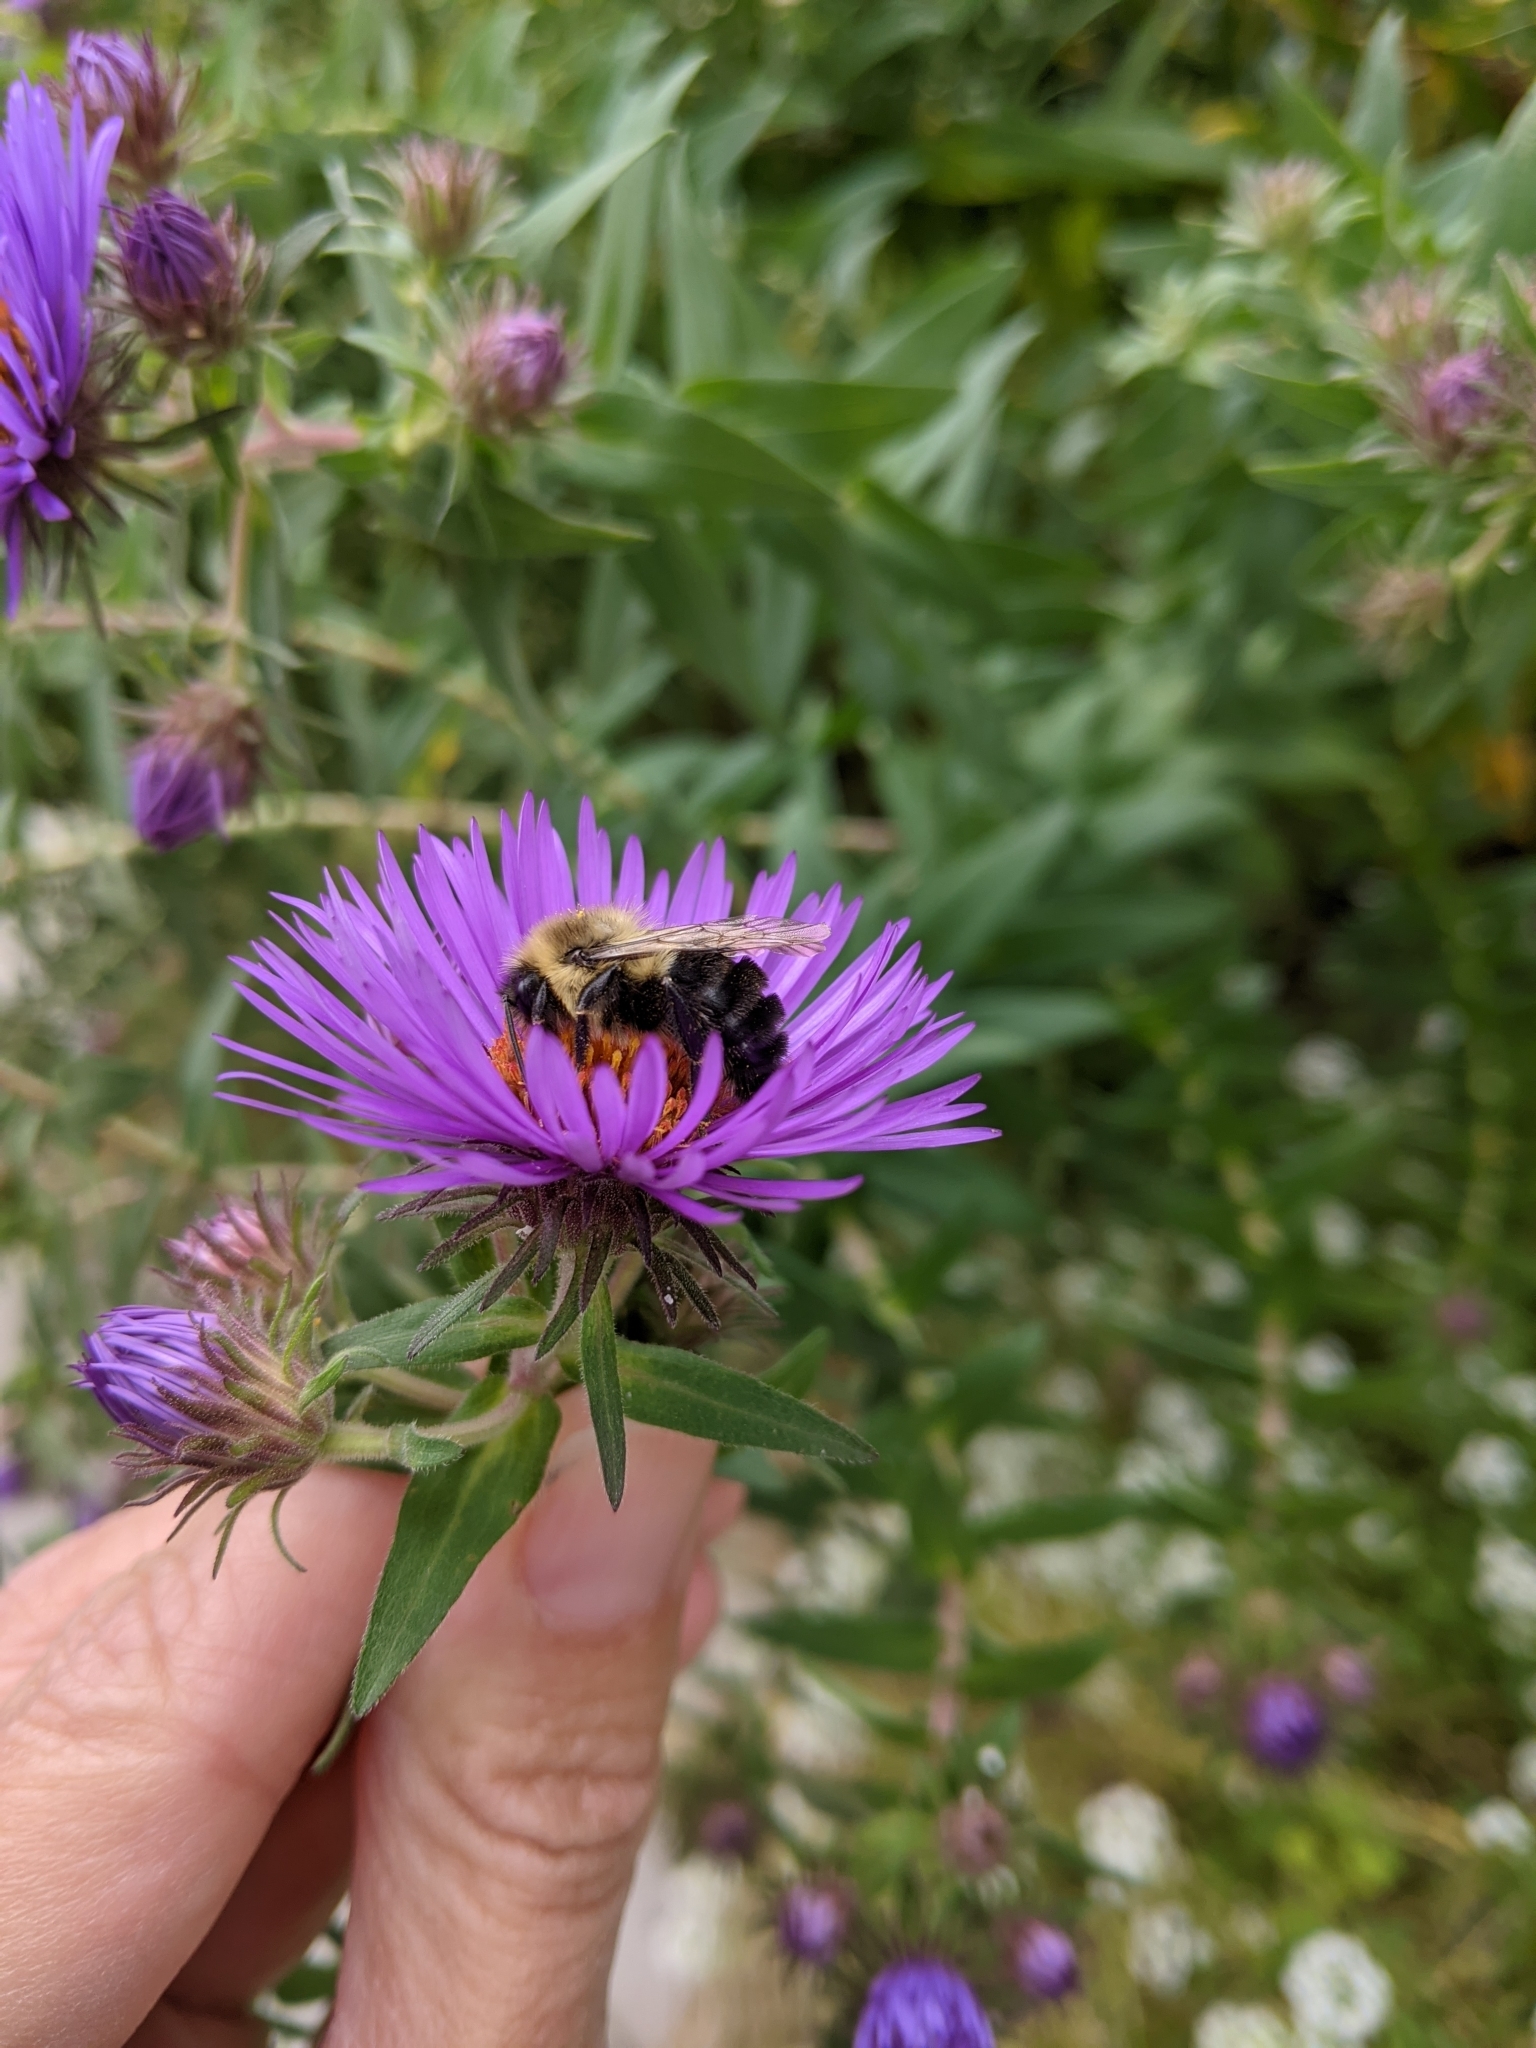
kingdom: Animalia
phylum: Arthropoda
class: Insecta
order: Hymenoptera
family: Apidae
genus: Bombus
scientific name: Bombus impatiens
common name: Common eastern bumble bee
